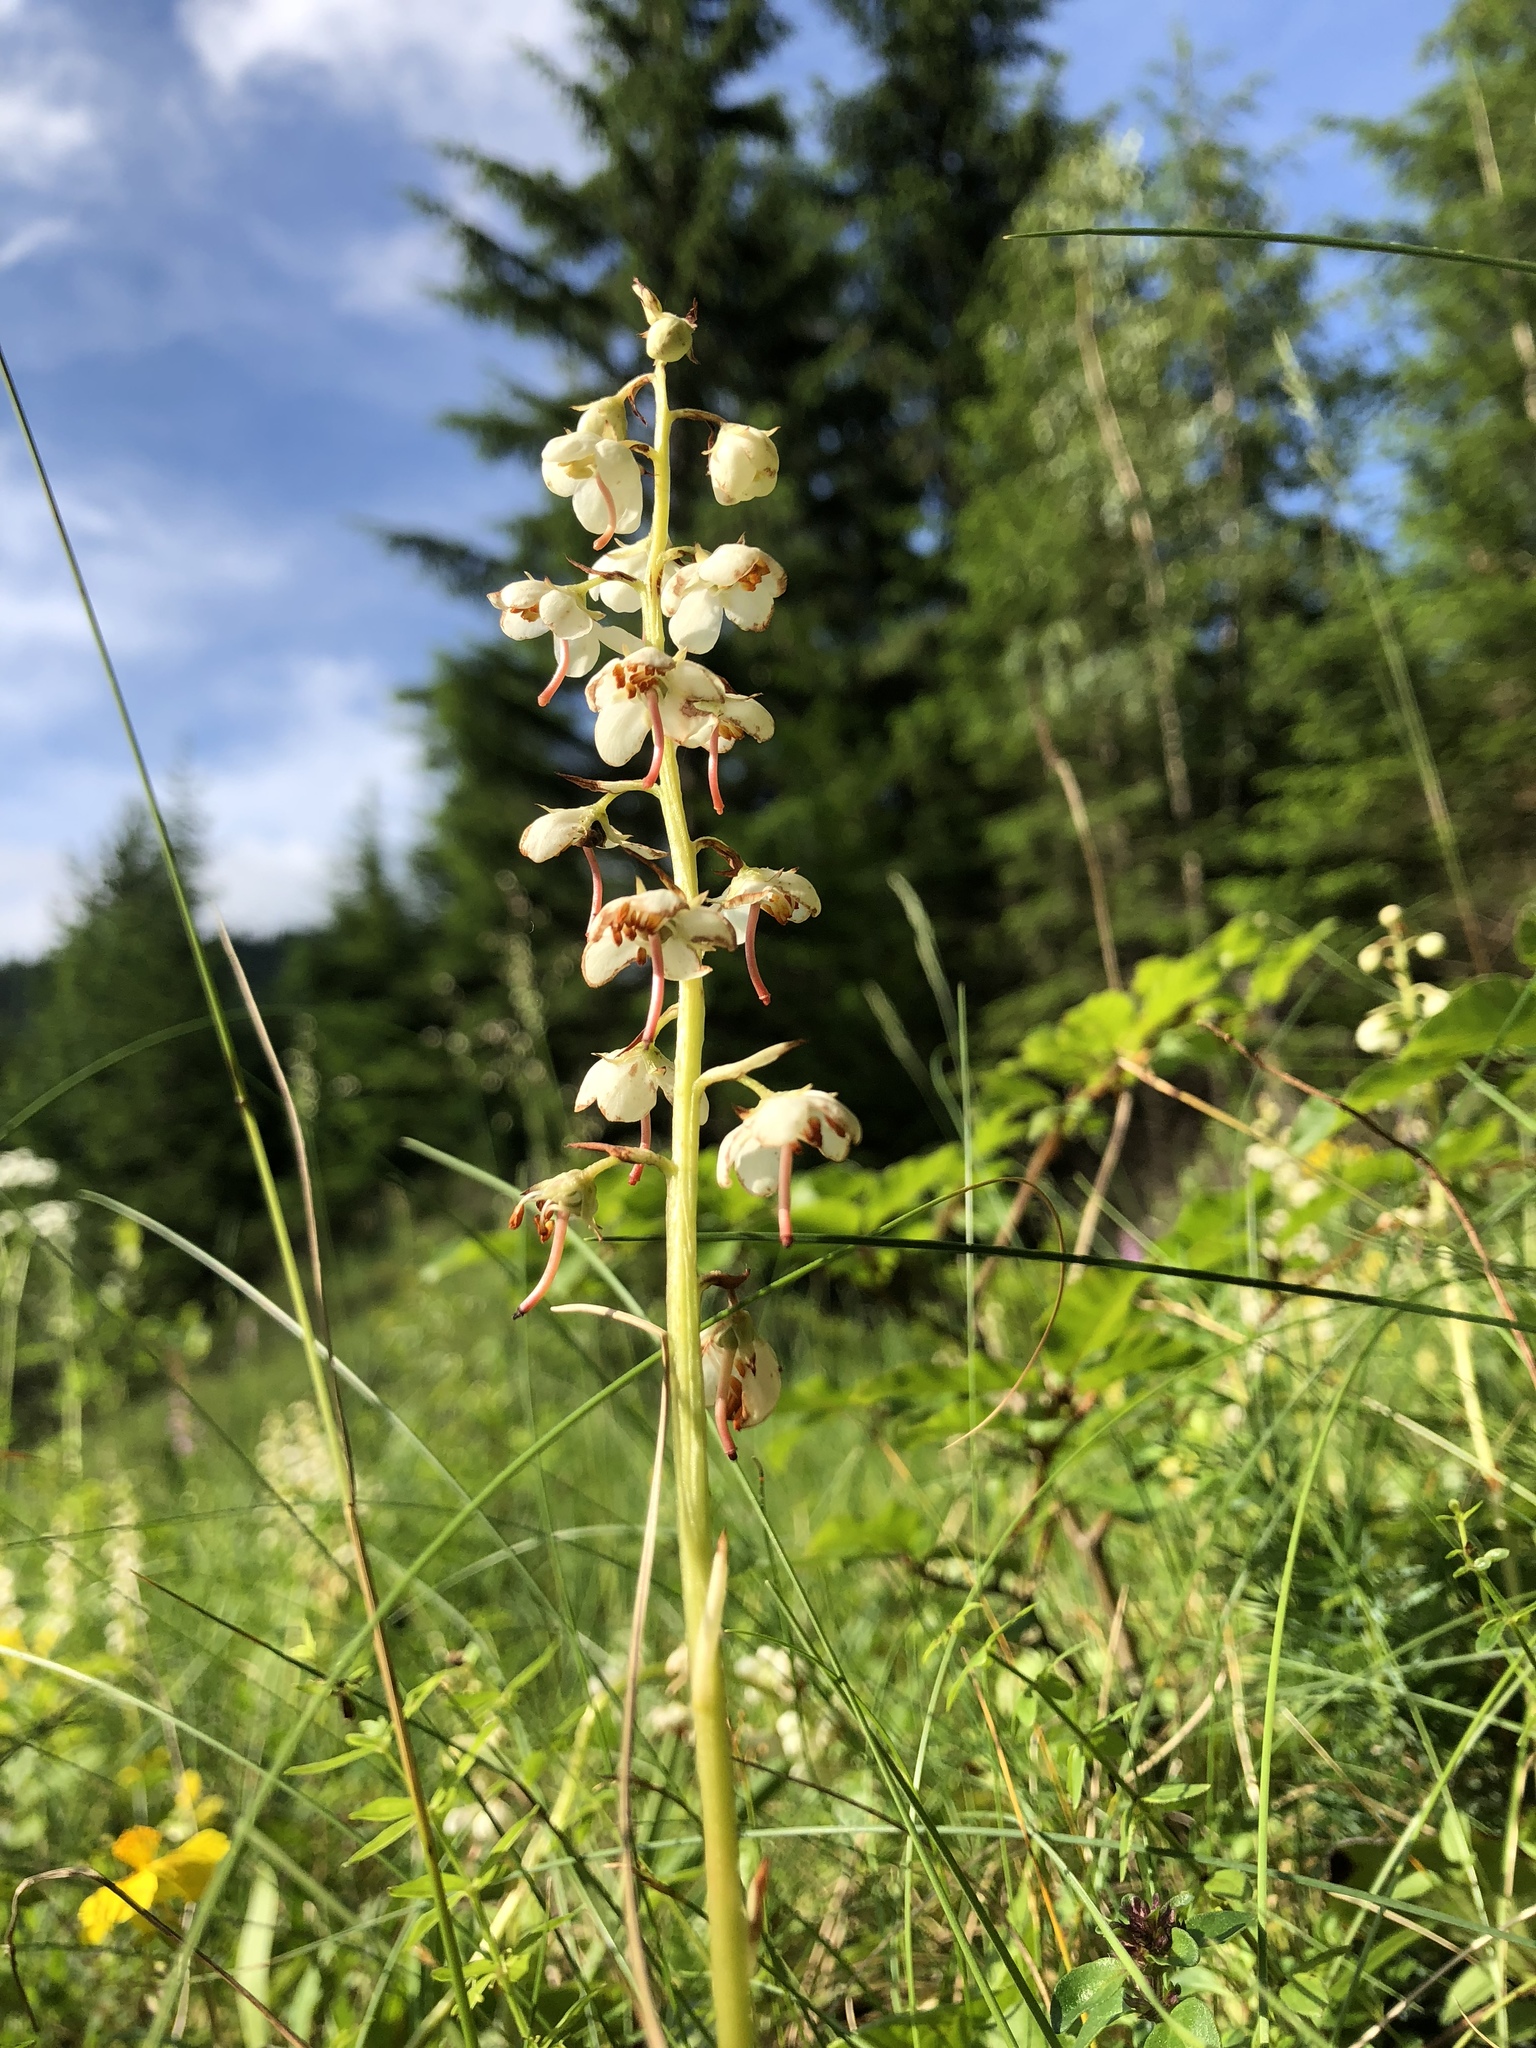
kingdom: Plantae
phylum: Tracheophyta
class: Magnoliopsida
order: Ericales
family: Ericaceae
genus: Pyrola
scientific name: Pyrola rotundifolia
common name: Round-leaved wintergreen
